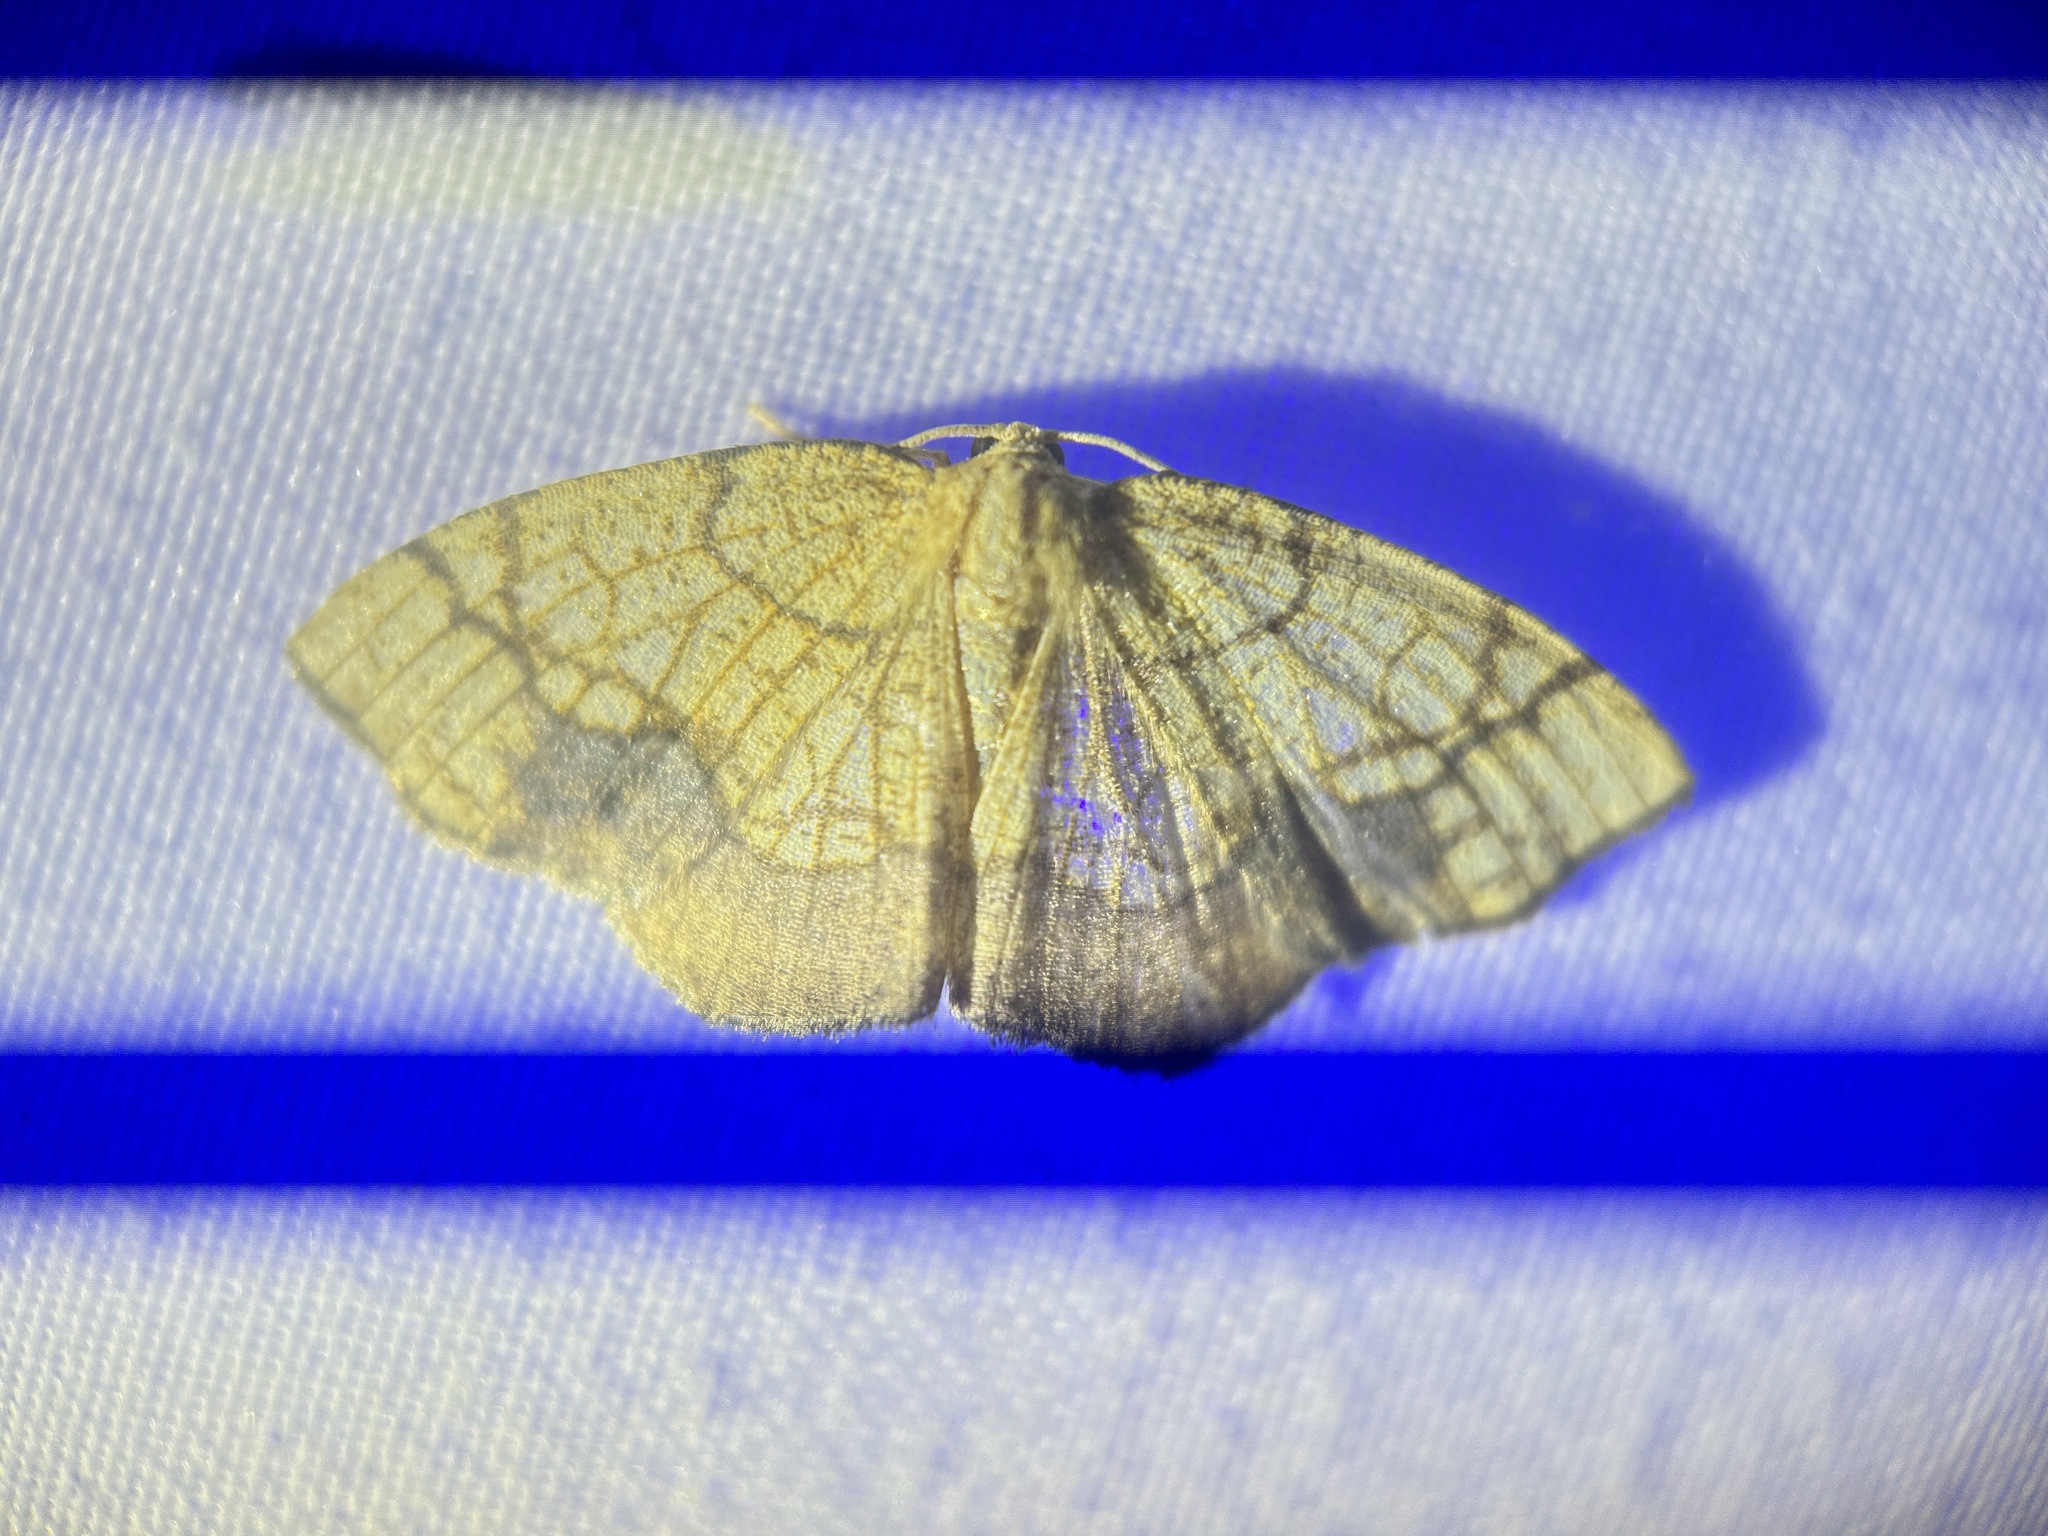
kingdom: Animalia
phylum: Arthropoda
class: Insecta
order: Lepidoptera
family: Geometridae
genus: Nematocampa
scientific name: Nematocampa resistaria
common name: Horned spanworm moth
